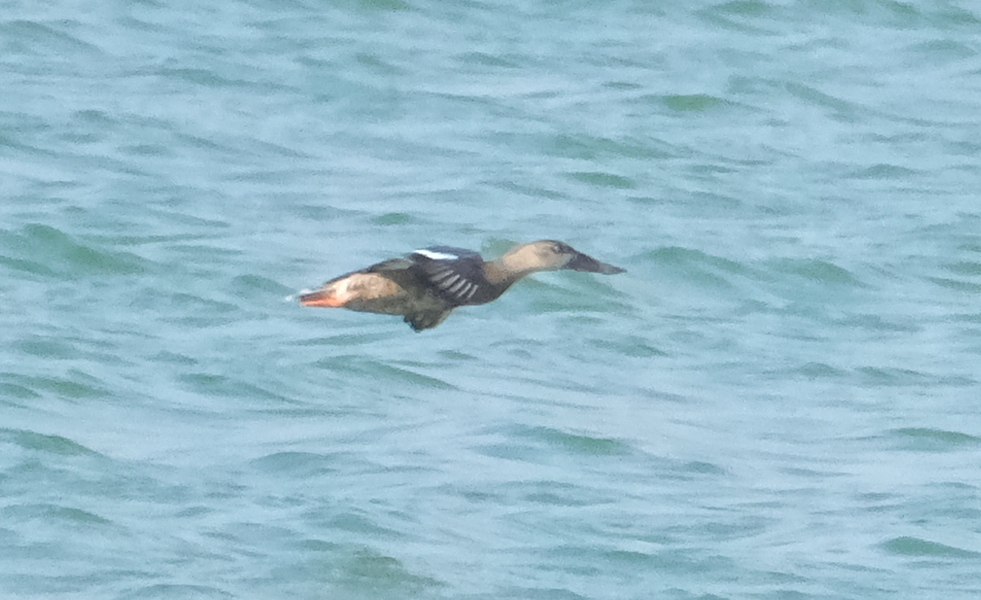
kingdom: Animalia
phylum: Chordata
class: Aves
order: Anseriformes
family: Anatidae
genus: Spatula
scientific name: Spatula clypeata
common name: Northern shoveler
